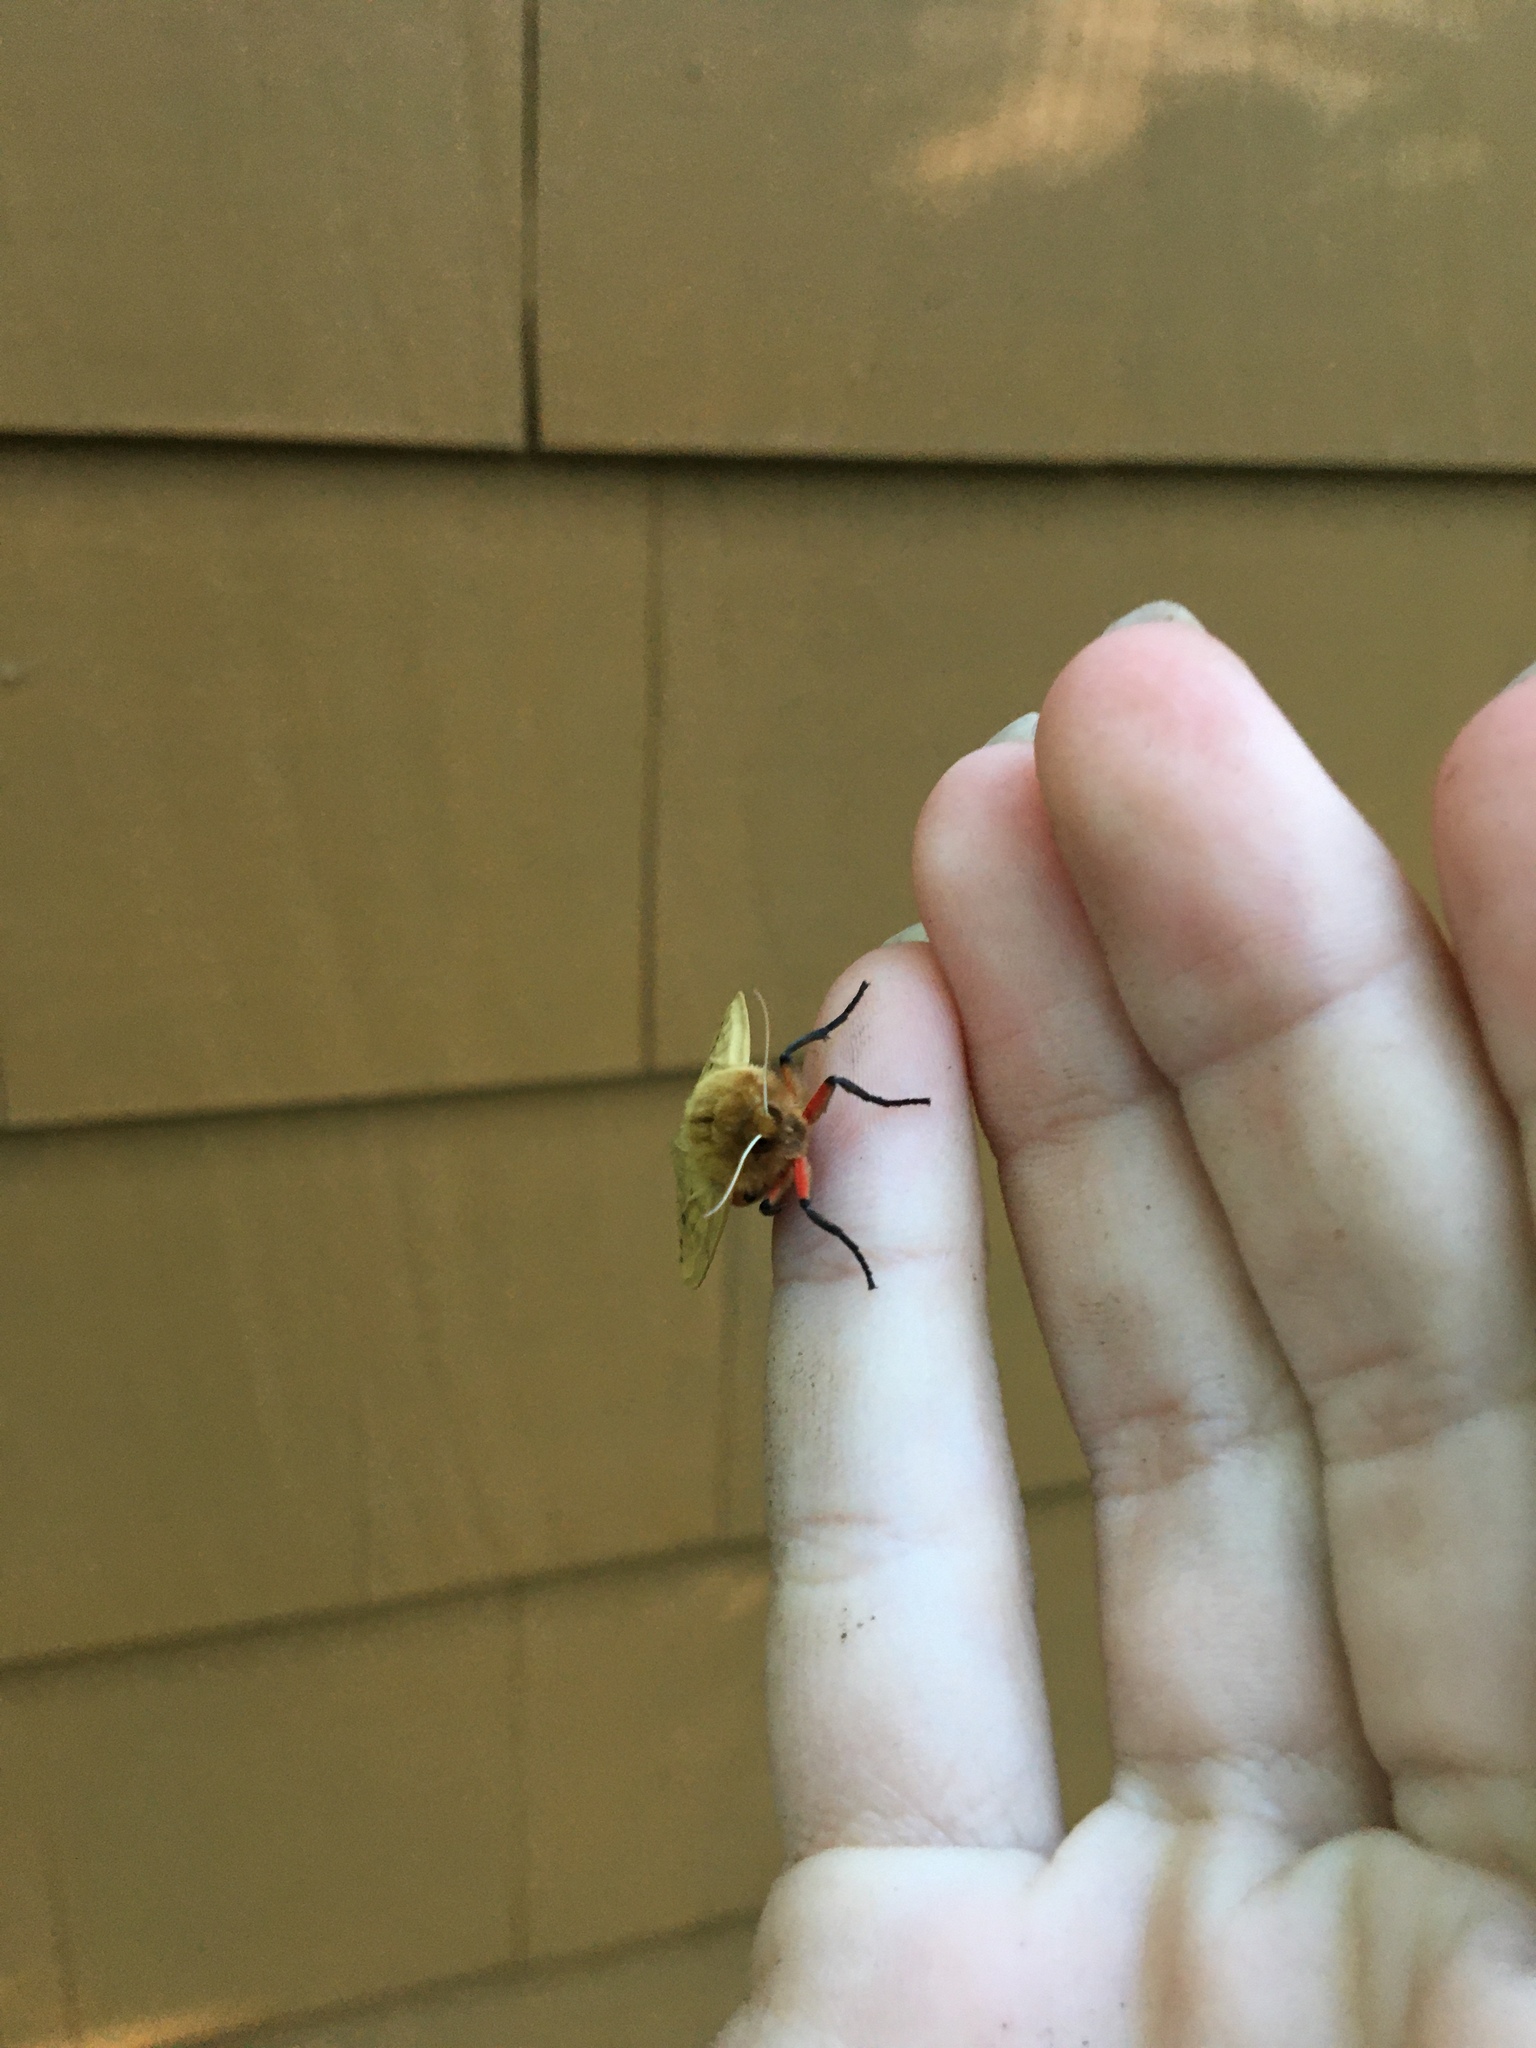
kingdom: Animalia
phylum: Arthropoda
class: Insecta
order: Lepidoptera
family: Erebidae
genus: Pyrrharctia
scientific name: Pyrrharctia isabella
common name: Isabella tiger moth
